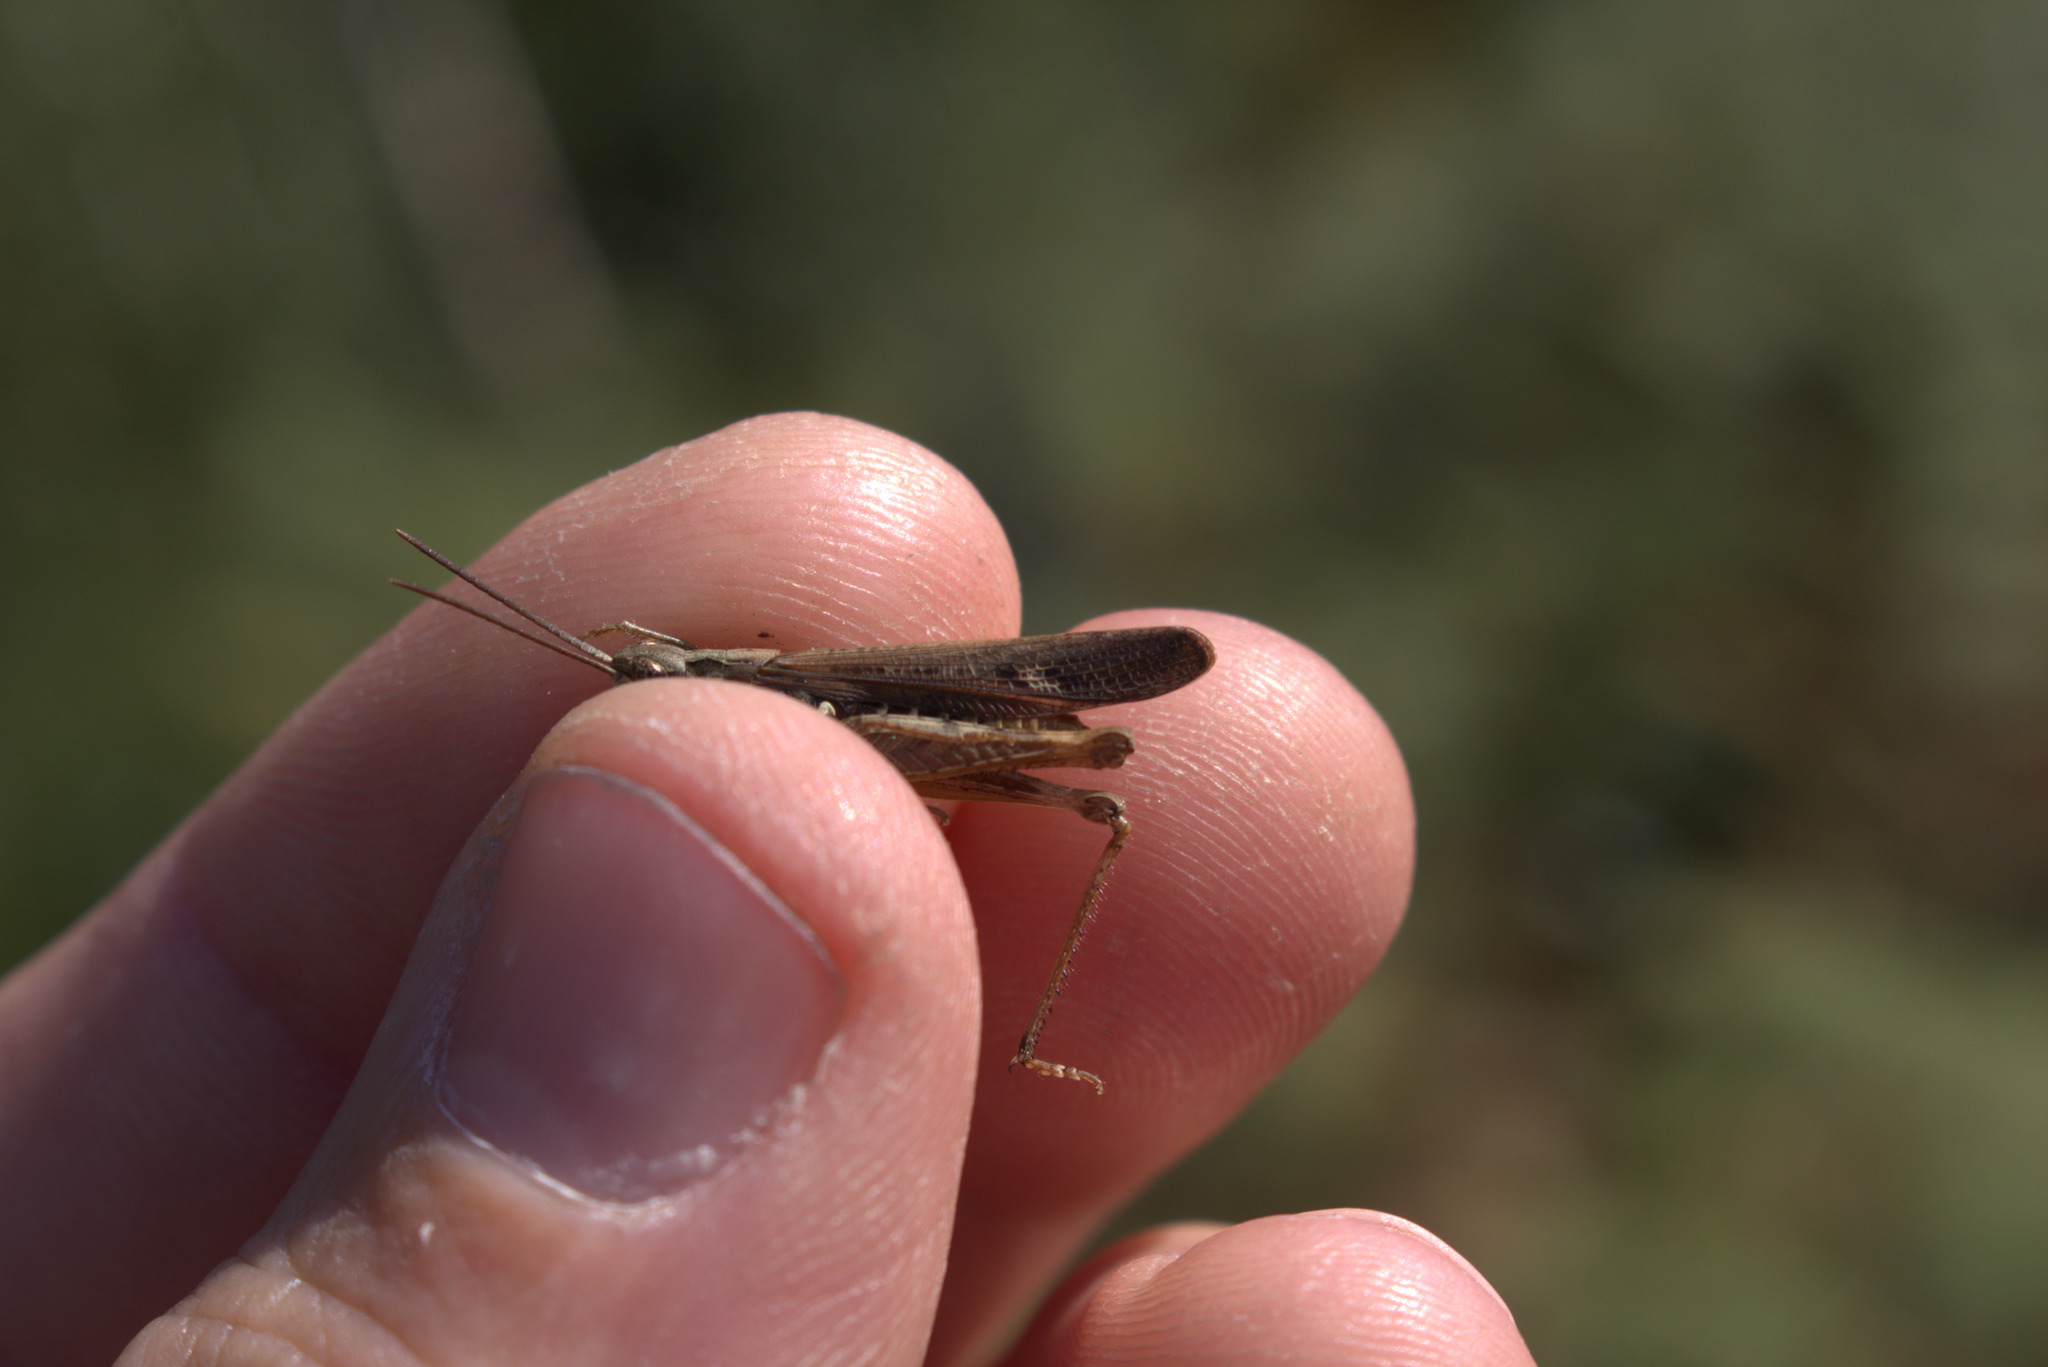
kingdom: Animalia
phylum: Arthropoda
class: Insecta
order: Orthoptera
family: Acrididae
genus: Chorthippus
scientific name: Chorthippus brunneus
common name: Field grasshopper
